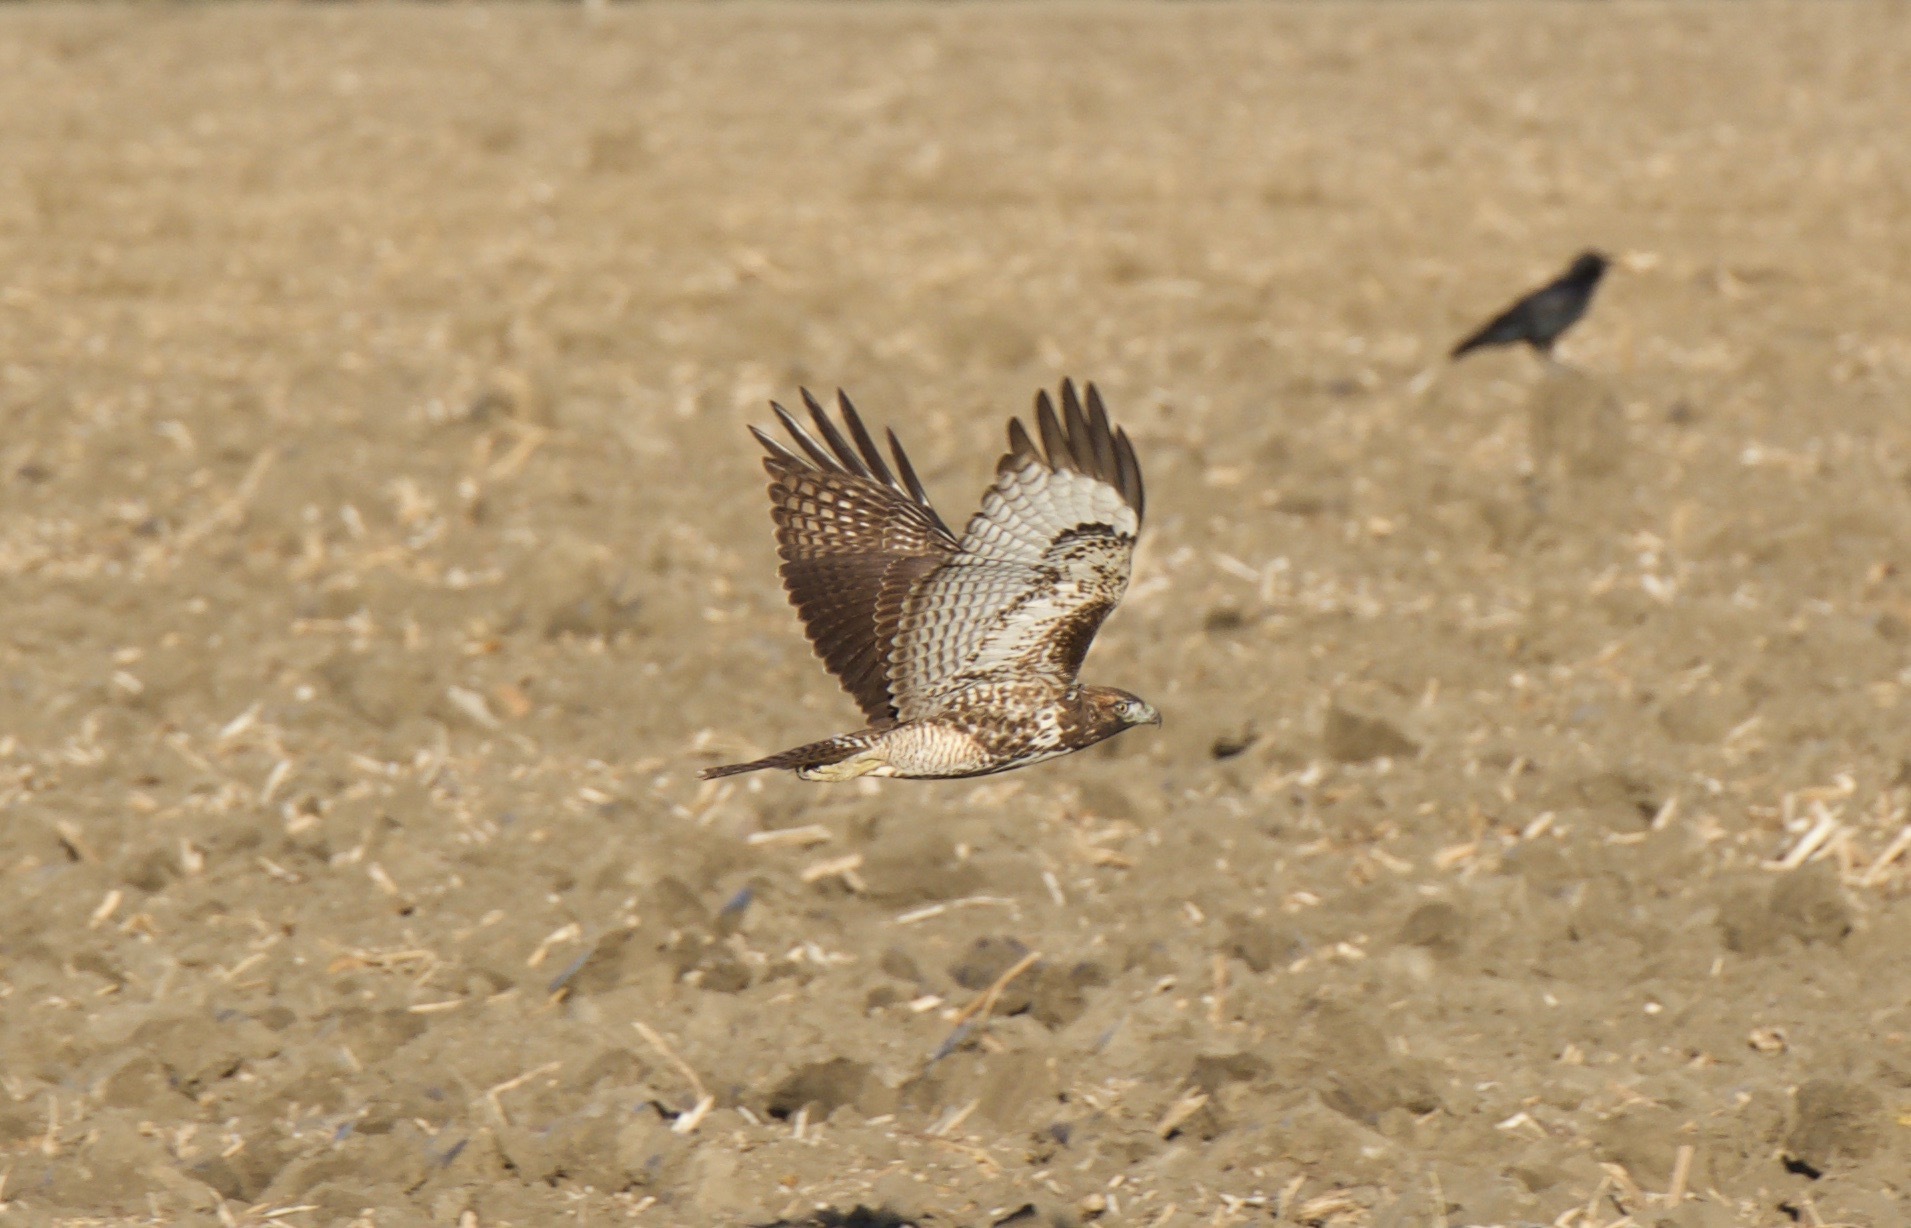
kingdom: Animalia
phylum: Chordata
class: Aves
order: Accipitriformes
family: Accipitridae
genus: Buteo
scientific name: Buteo jamaicensis
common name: Red-tailed hawk
